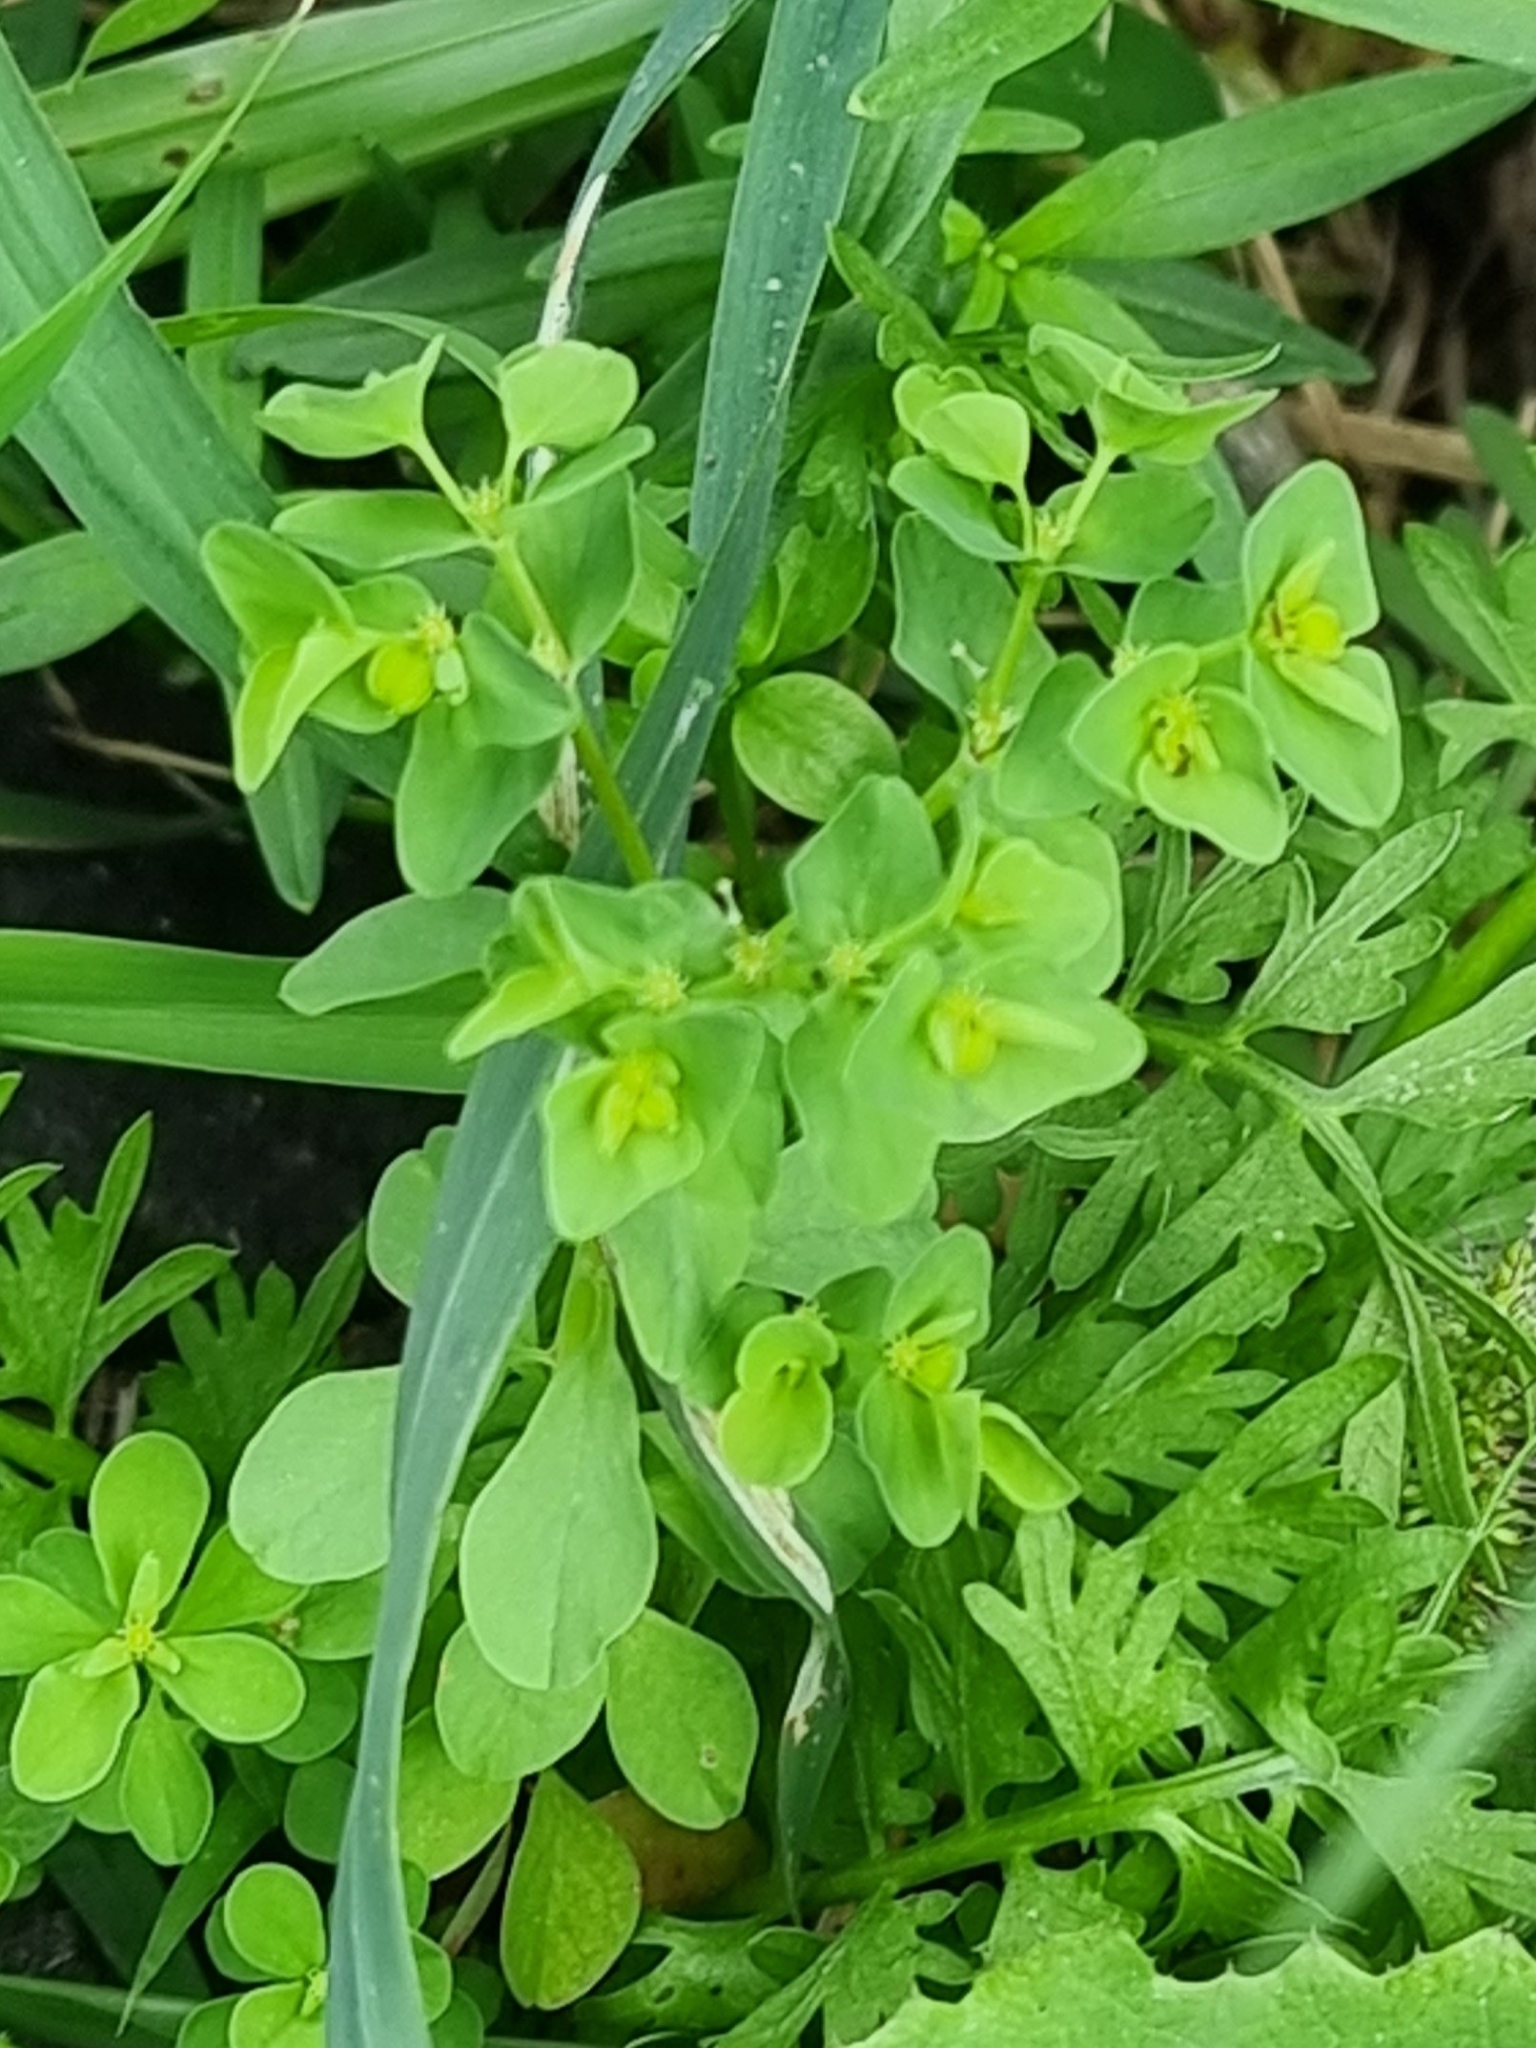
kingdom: Plantae
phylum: Tracheophyta
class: Magnoliopsida
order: Malpighiales
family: Euphorbiaceae
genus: Euphorbia
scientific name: Euphorbia peplus
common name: Petty spurge
